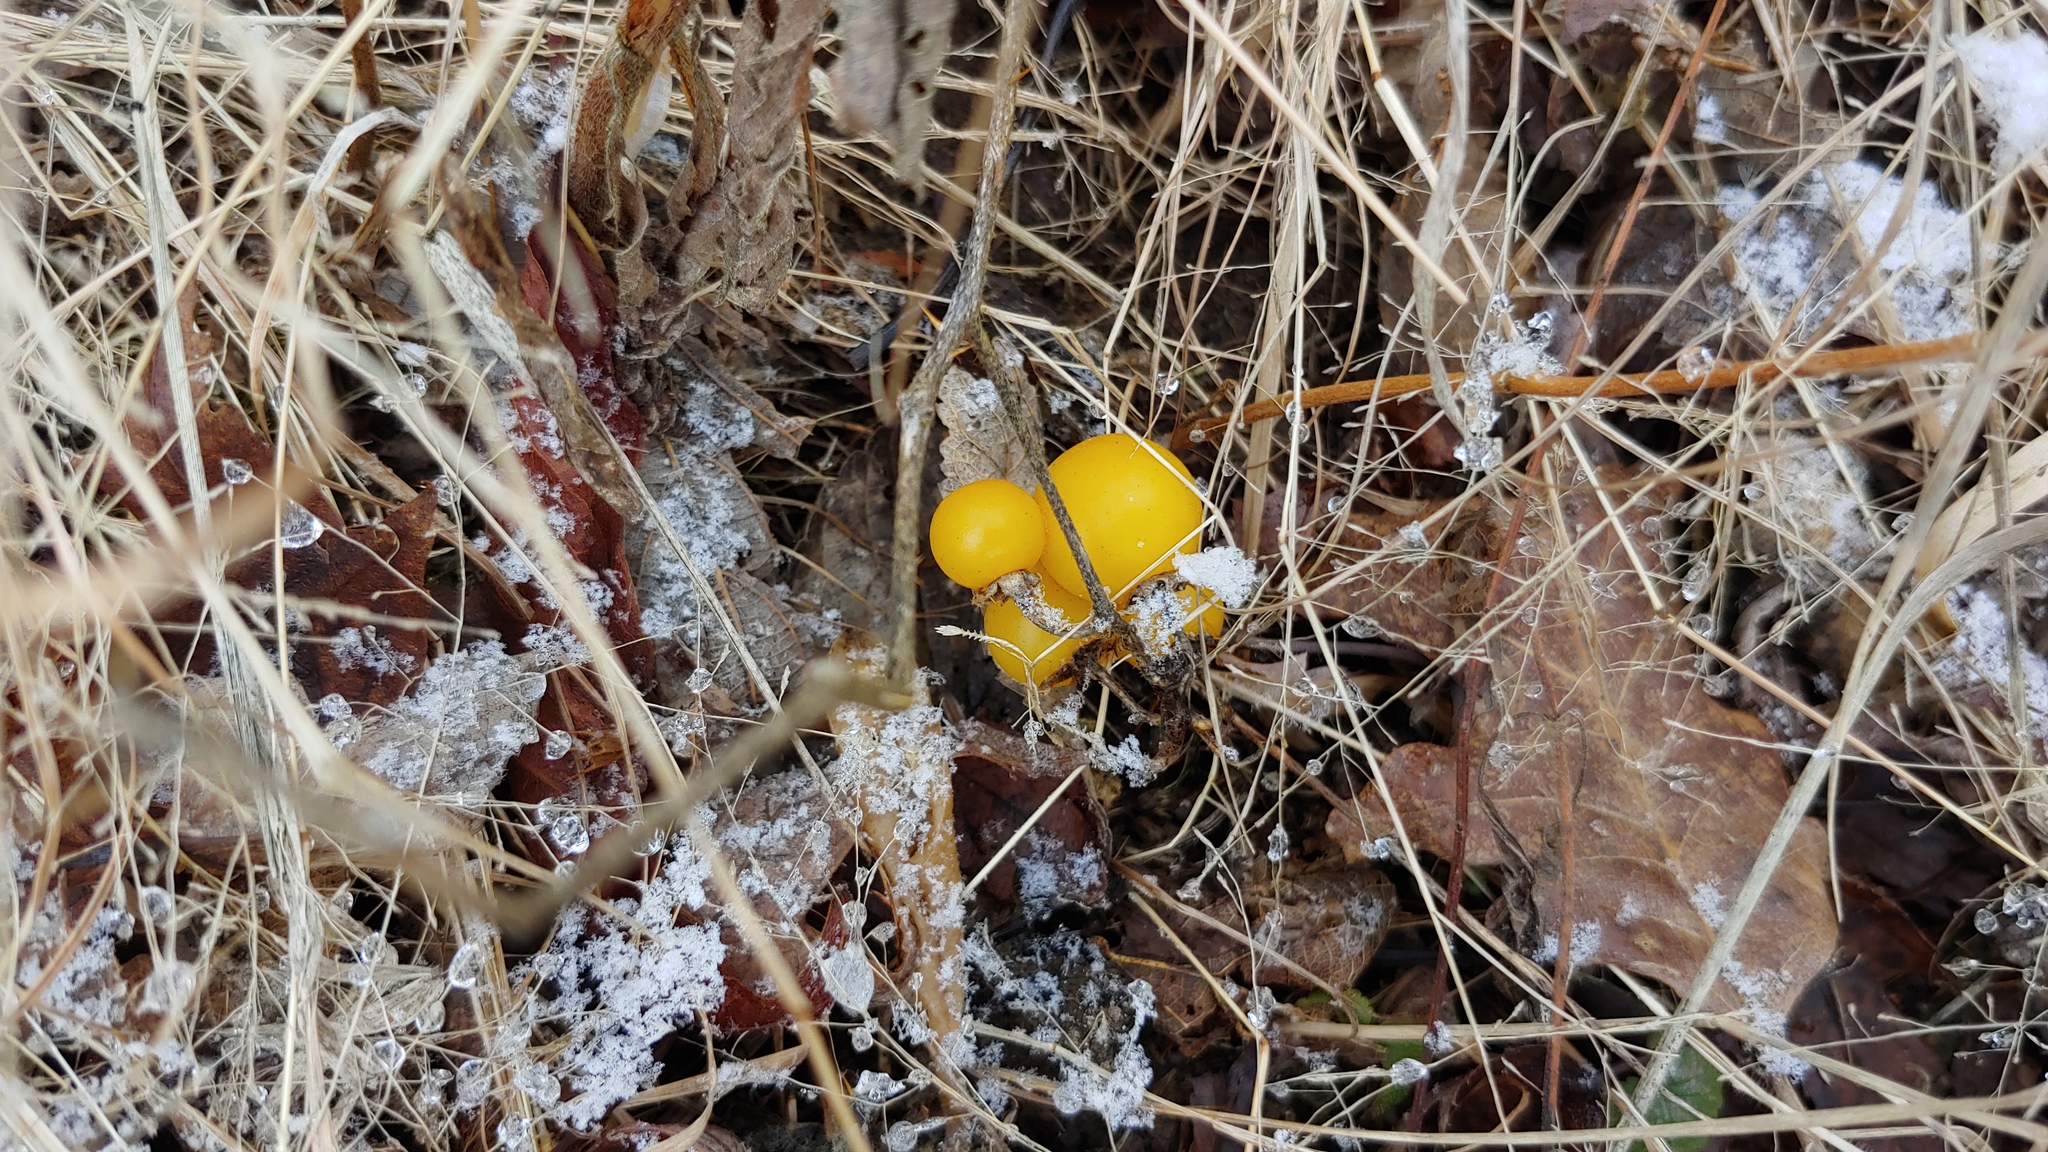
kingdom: Plantae
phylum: Tracheophyta
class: Magnoliopsida
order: Solanales
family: Solanaceae
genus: Solanum
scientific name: Solanum carolinense
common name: Horse-nettle
